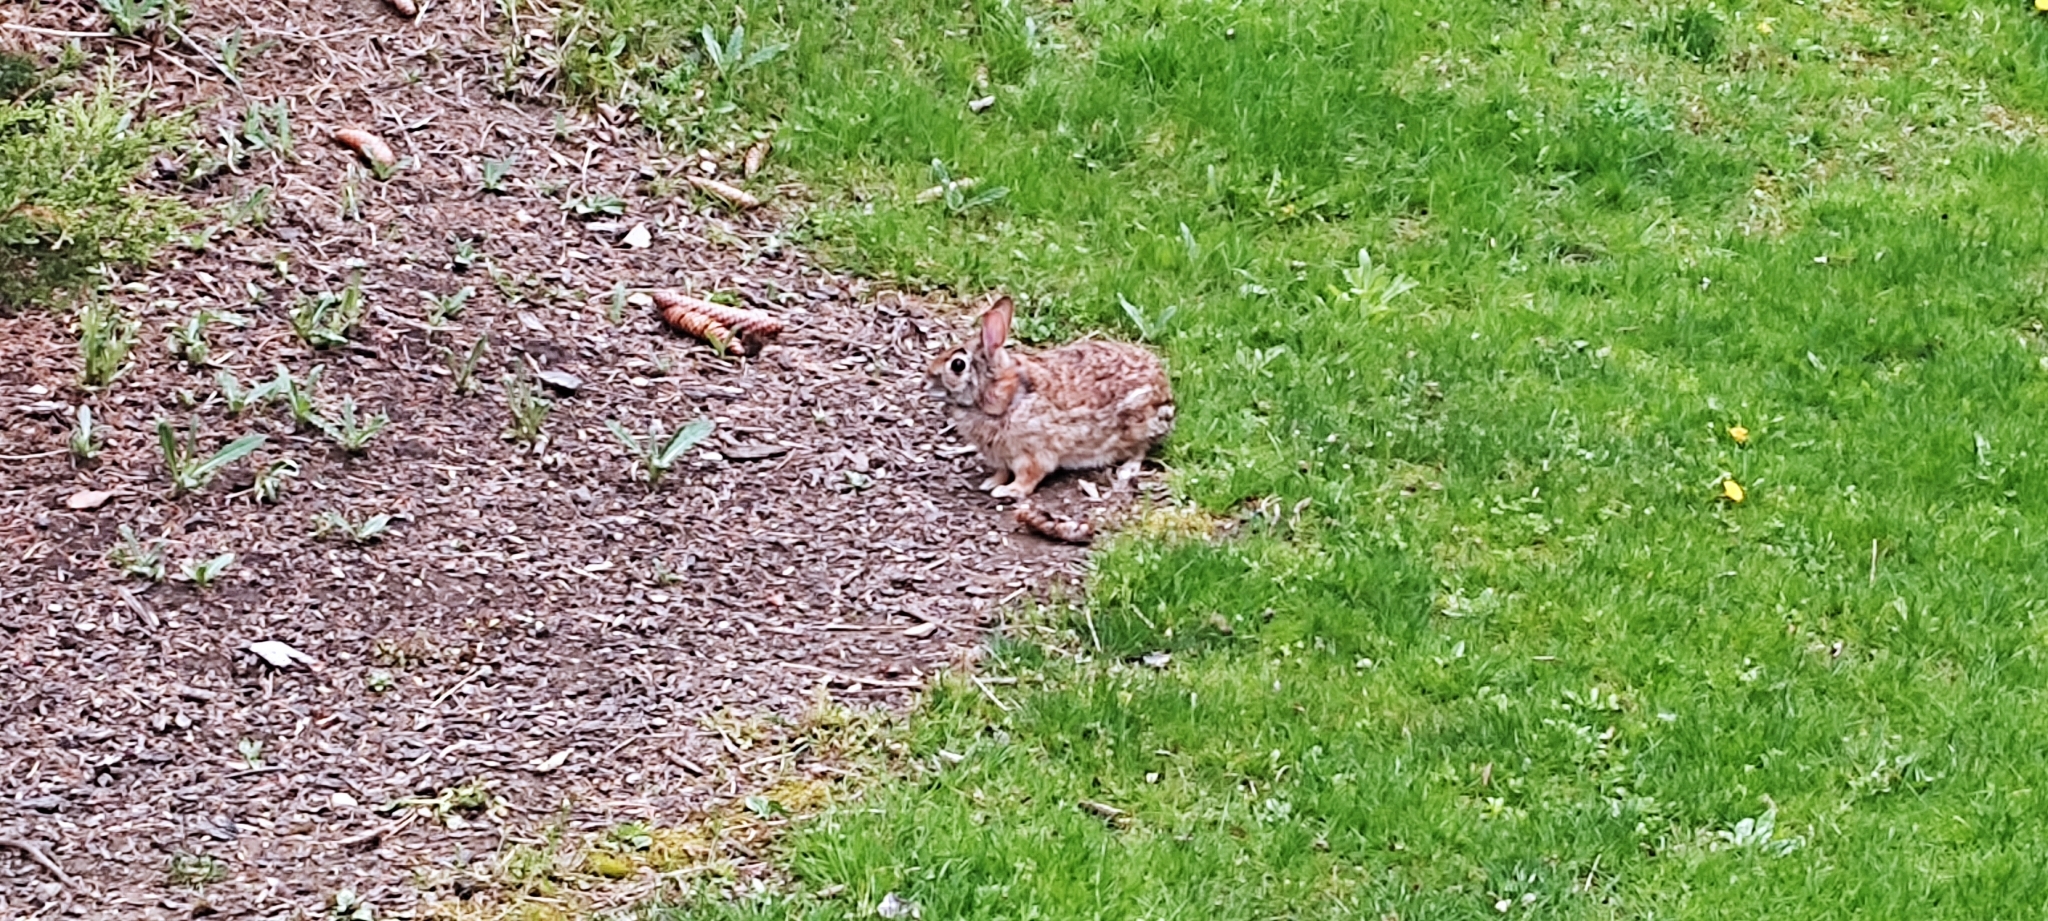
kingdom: Animalia
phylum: Chordata
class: Mammalia
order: Lagomorpha
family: Leporidae
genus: Sylvilagus
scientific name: Sylvilagus floridanus
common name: Eastern cottontail
